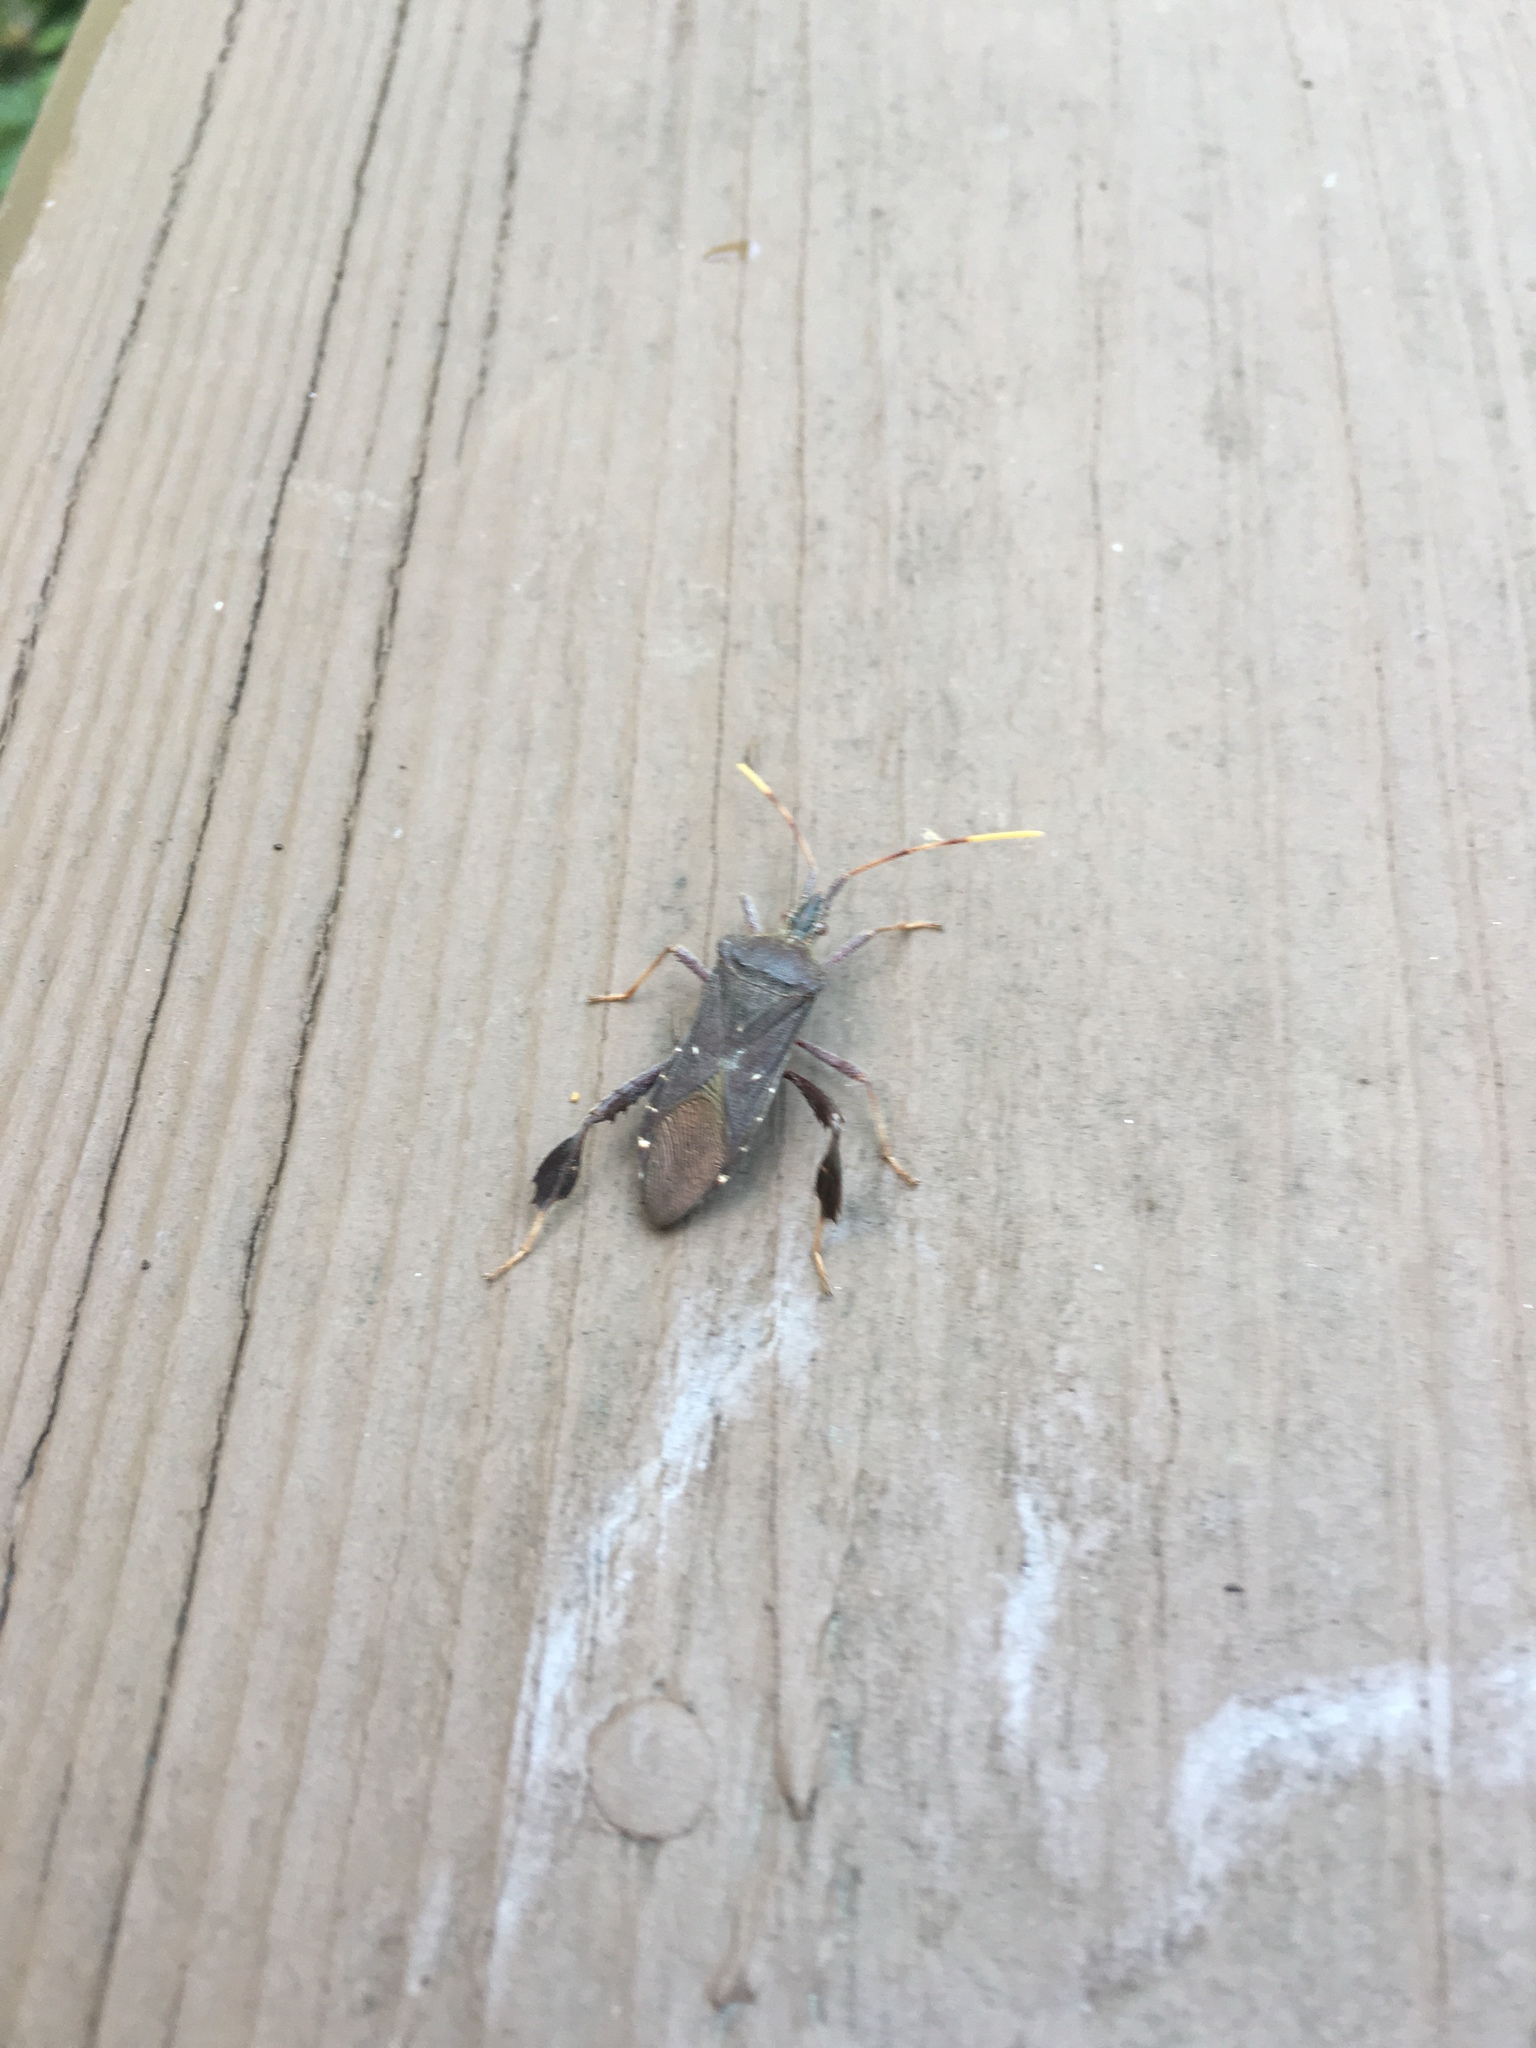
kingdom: Animalia
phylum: Arthropoda
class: Insecta
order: Hemiptera
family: Coreidae
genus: Leptoglossus
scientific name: Leptoglossus oppositus
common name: Northern leaf-footed bug
